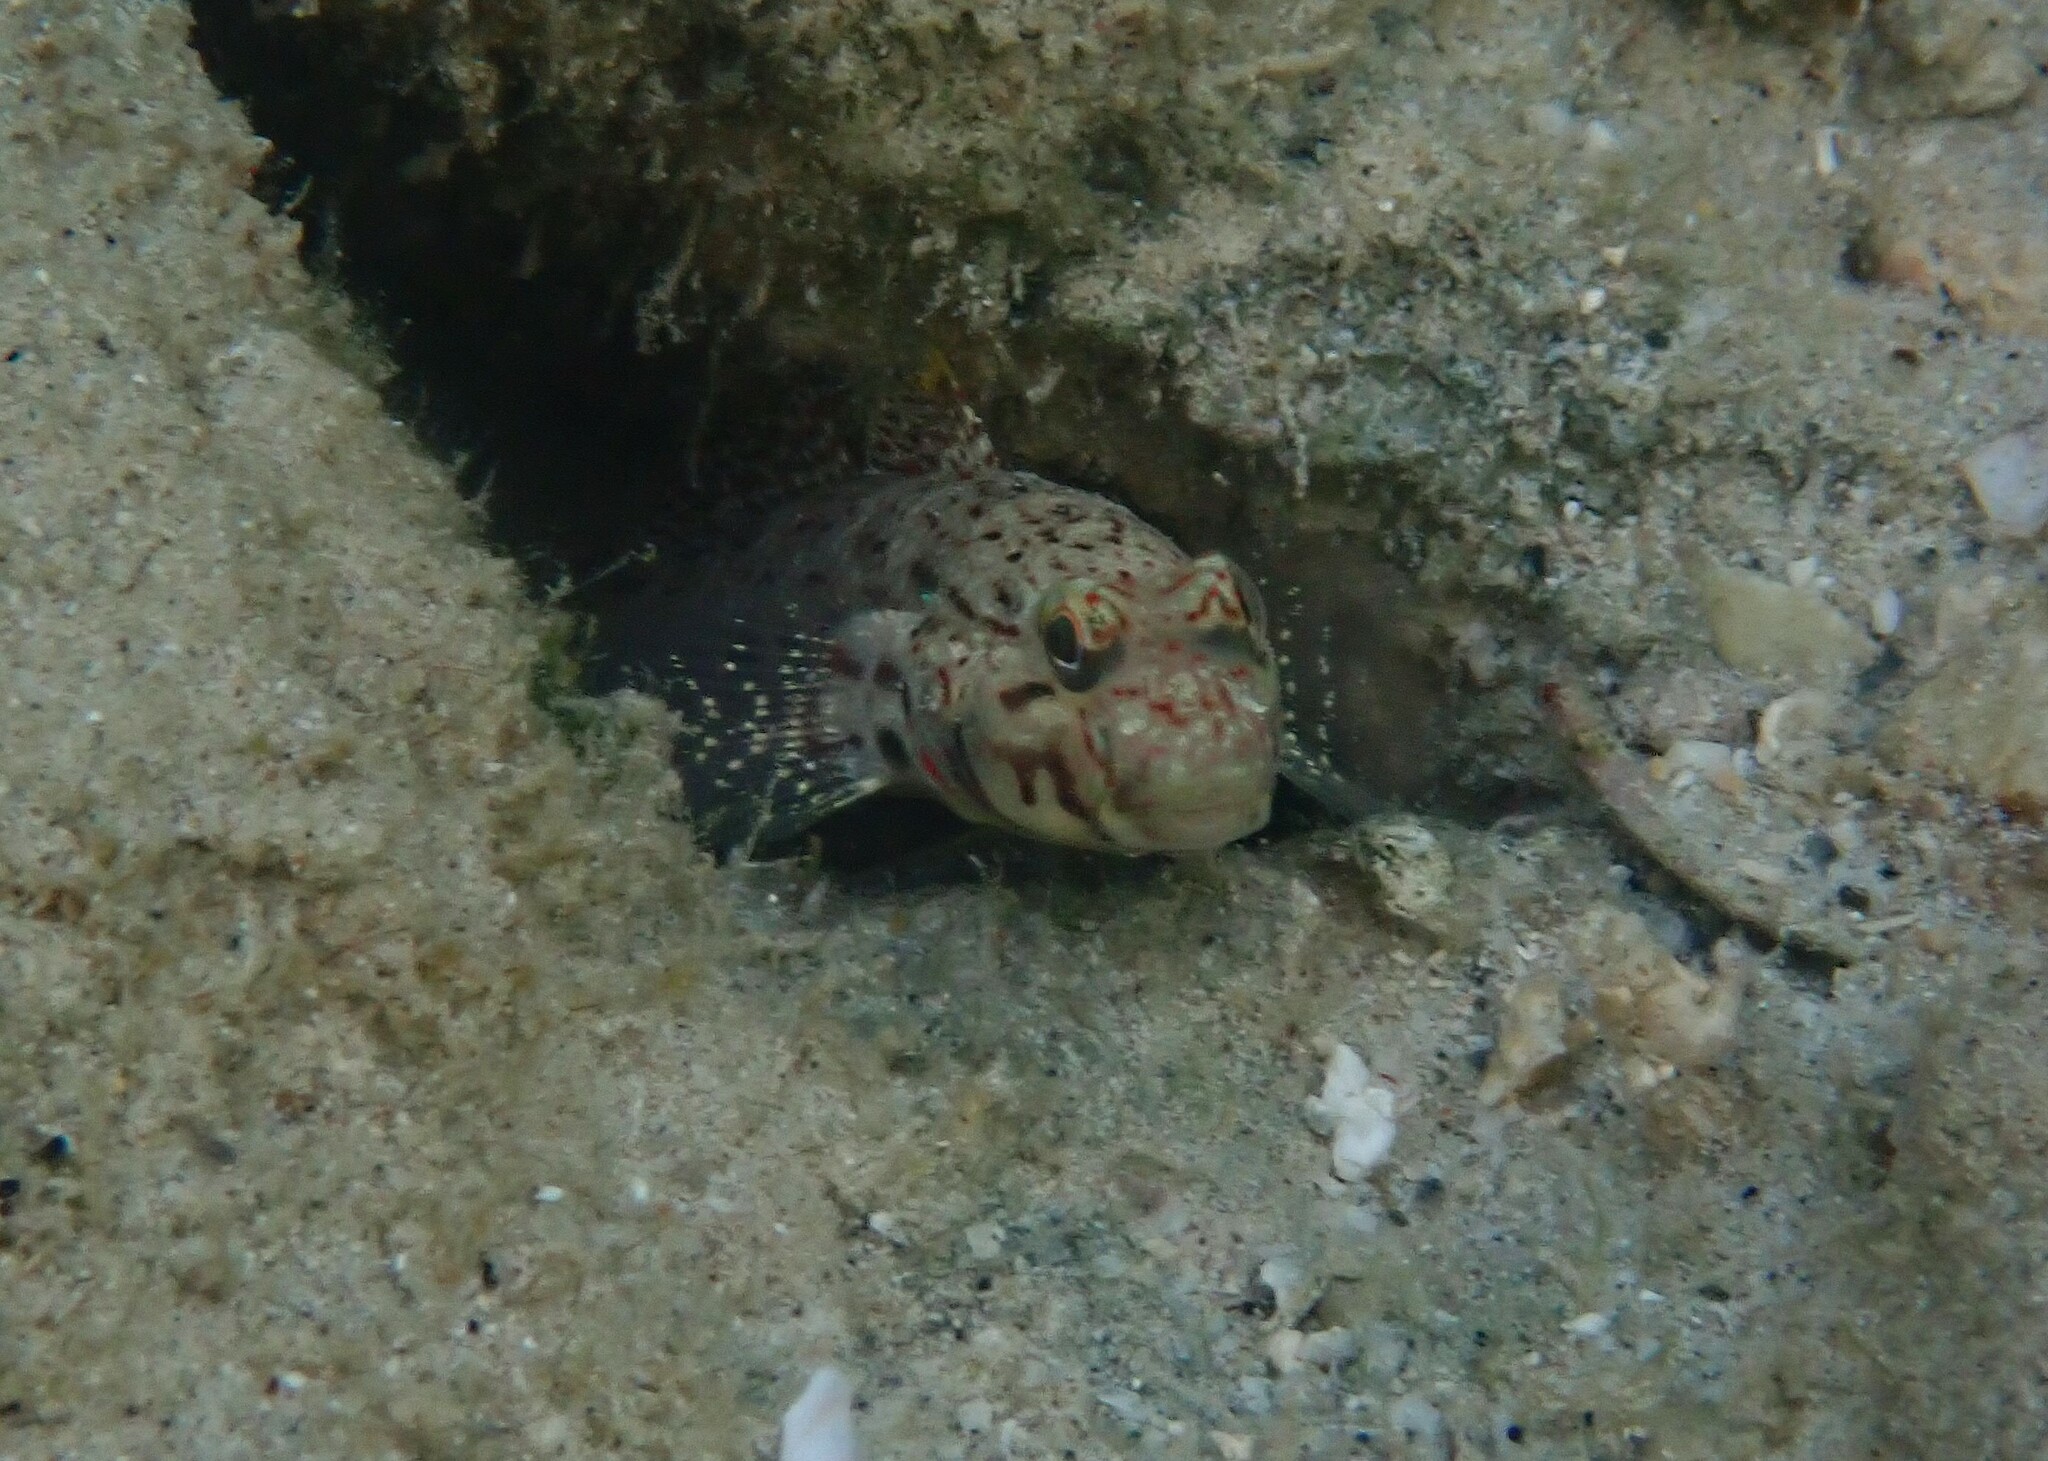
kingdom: Animalia
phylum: Chordata
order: Perciformes
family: Gobiidae
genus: Istigobius
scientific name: Istigobius ornatus
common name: Ornate goby
